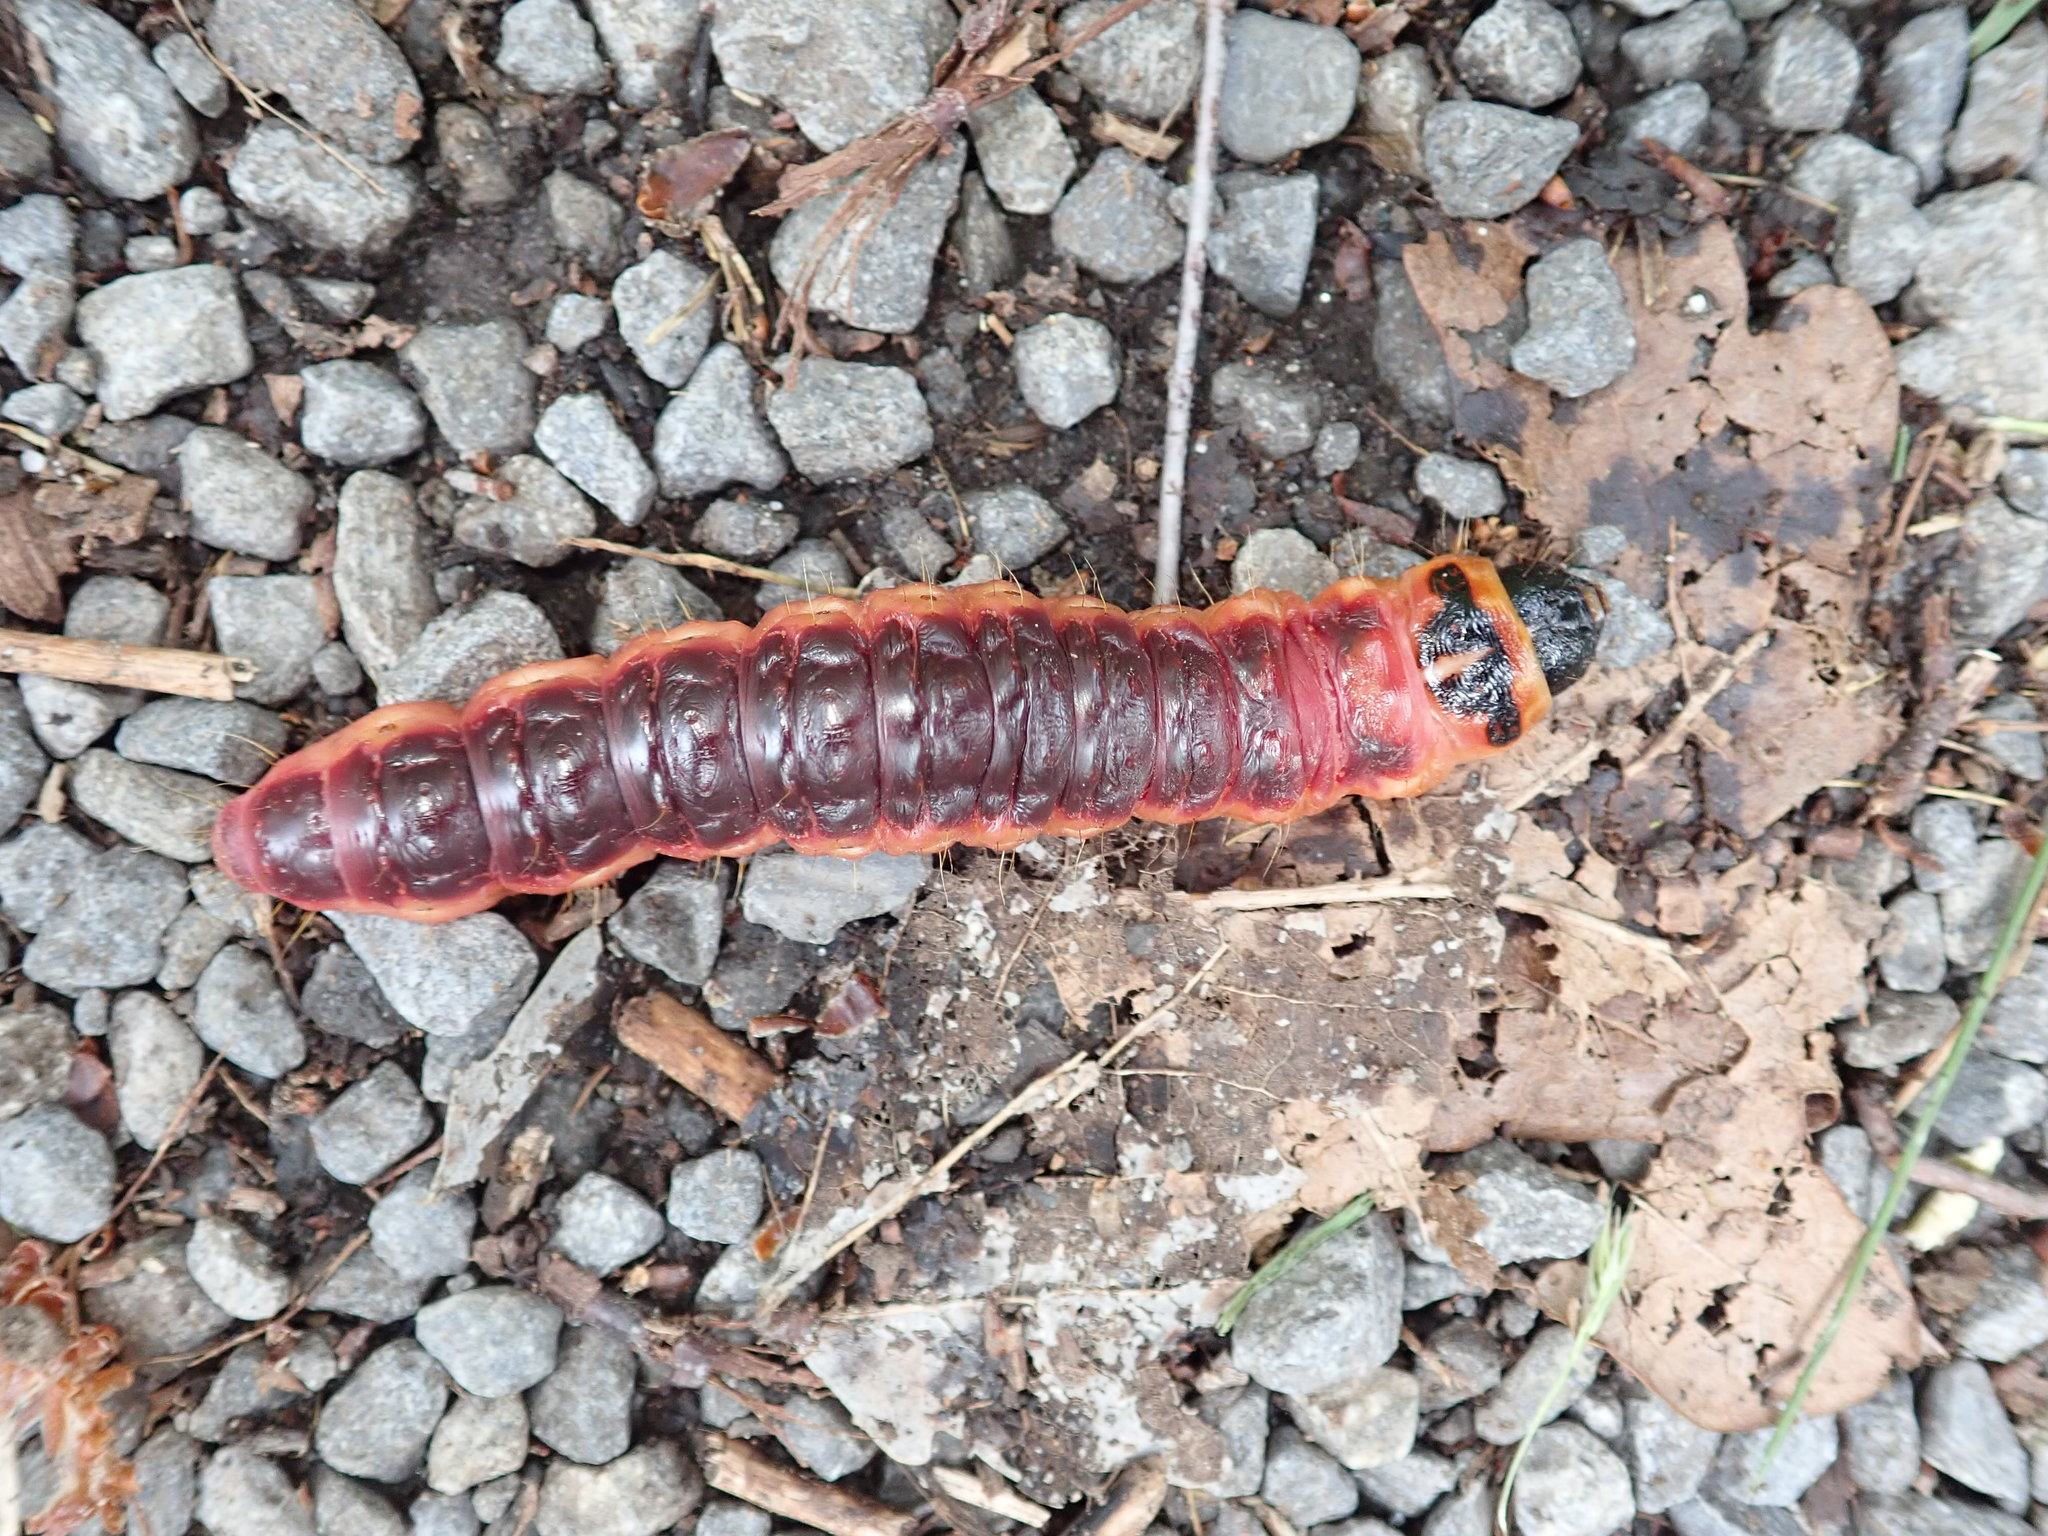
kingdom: Animalia
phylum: Arthropoda
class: Insecta
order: Lepidoptera
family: Cossidae
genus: Cossus
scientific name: Cossus cossus
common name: Goat moth
